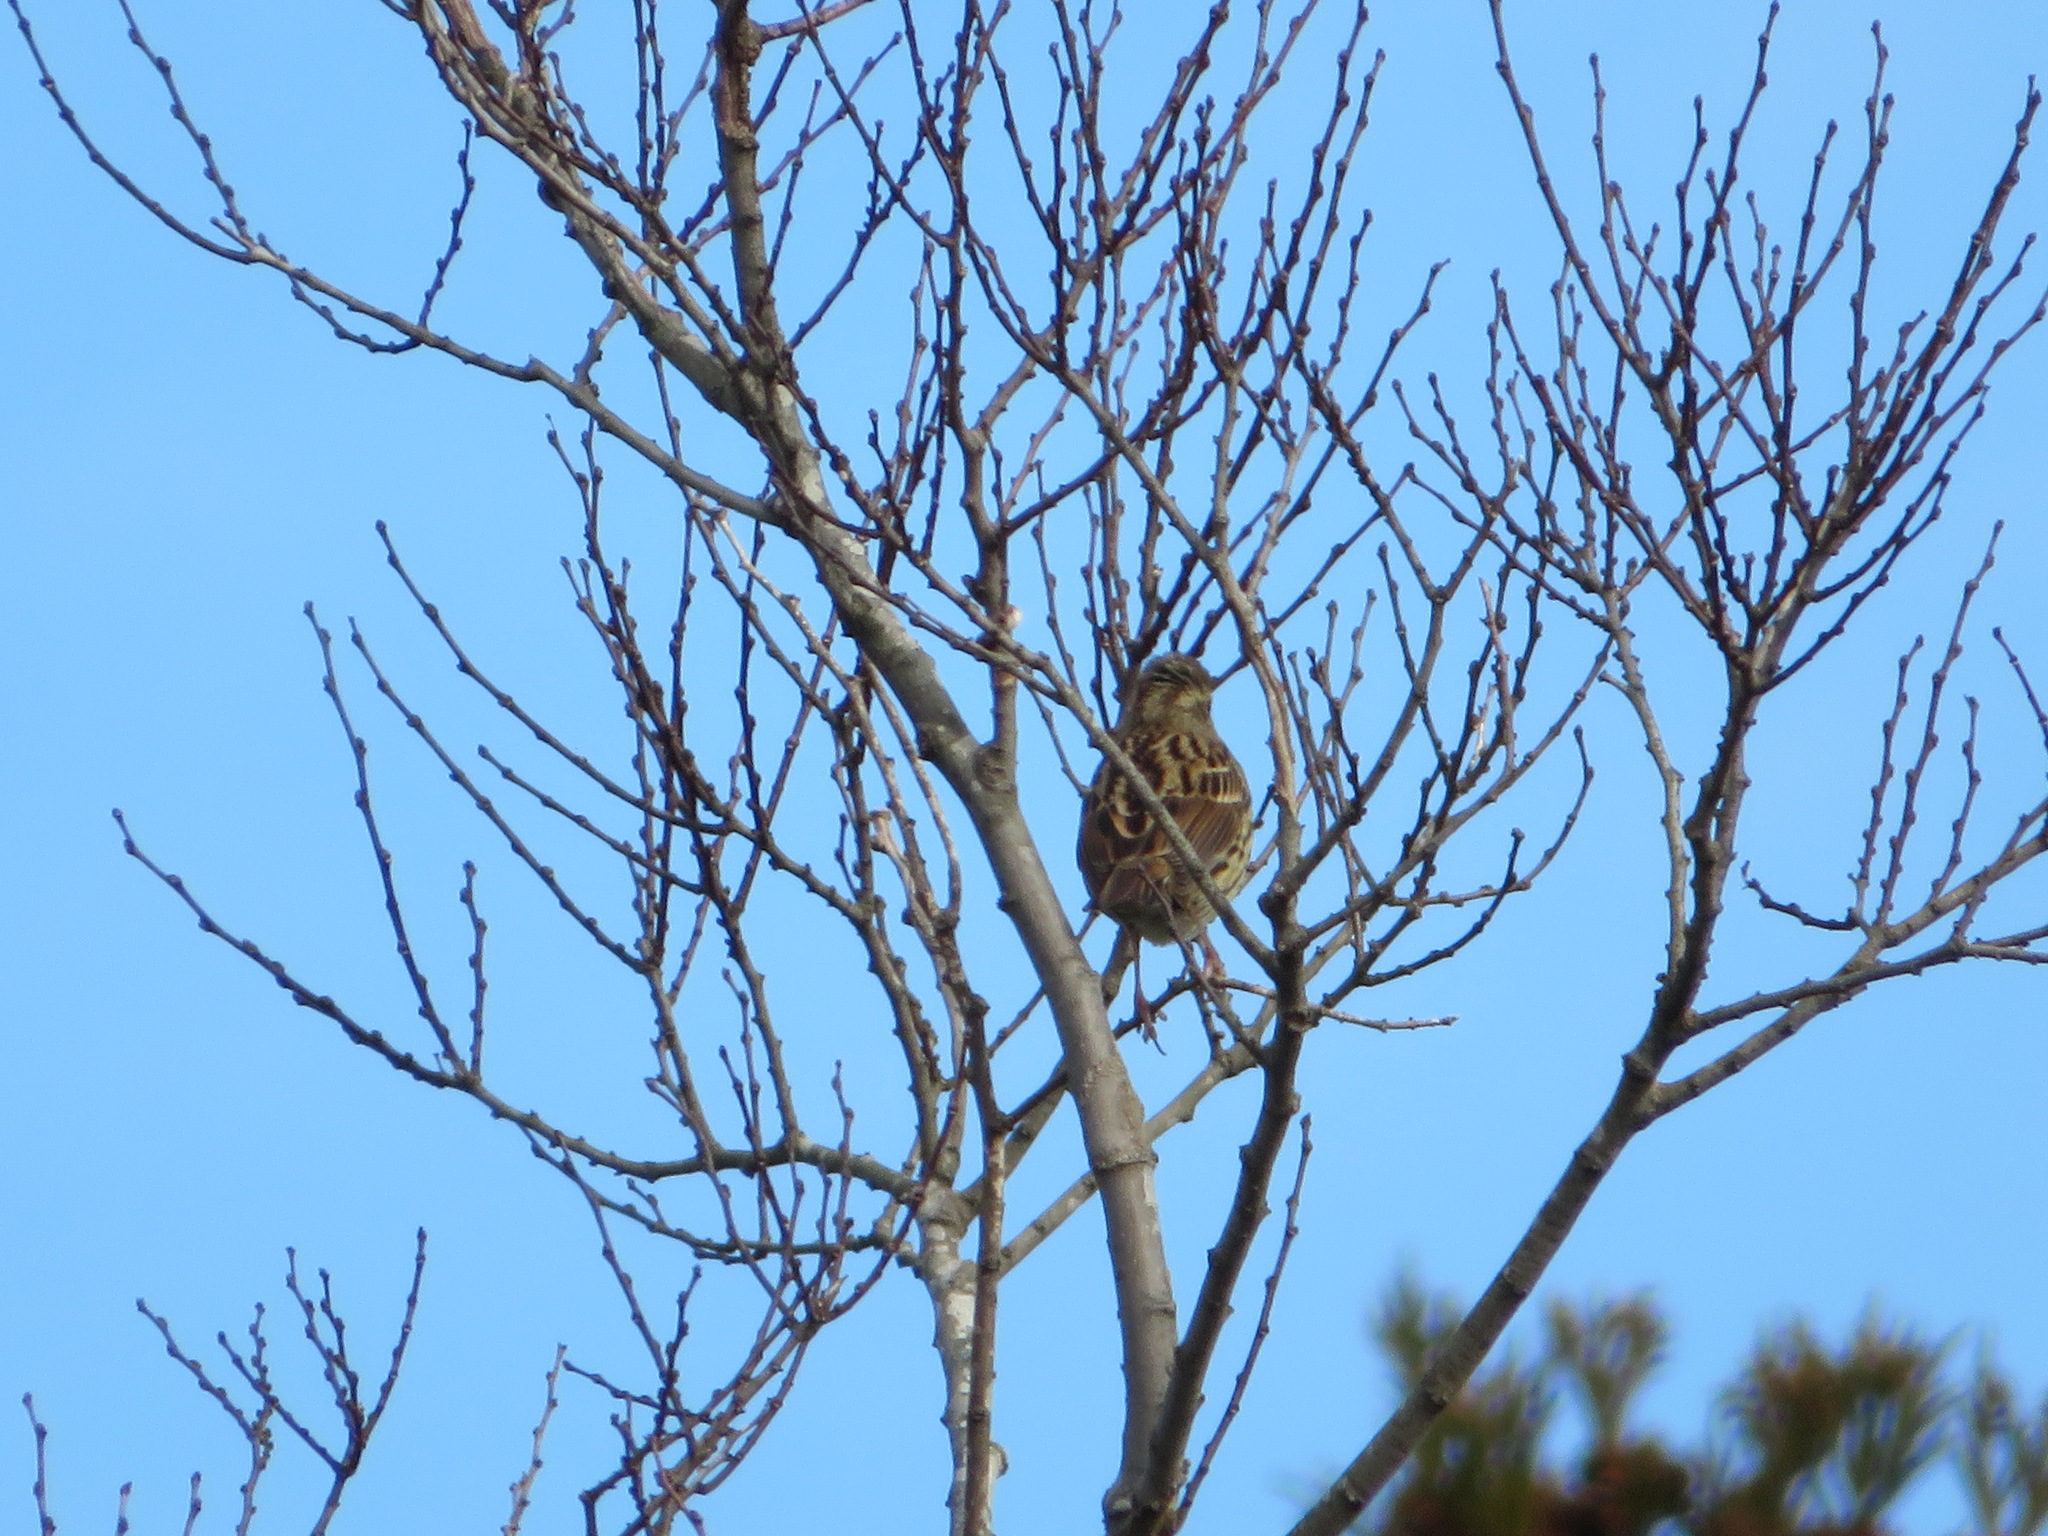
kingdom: Animalia
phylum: Chordata
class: Aves
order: Passeriformes
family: Emberizidae
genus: Emberiza
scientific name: Emberiza personata
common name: Masked bunting
